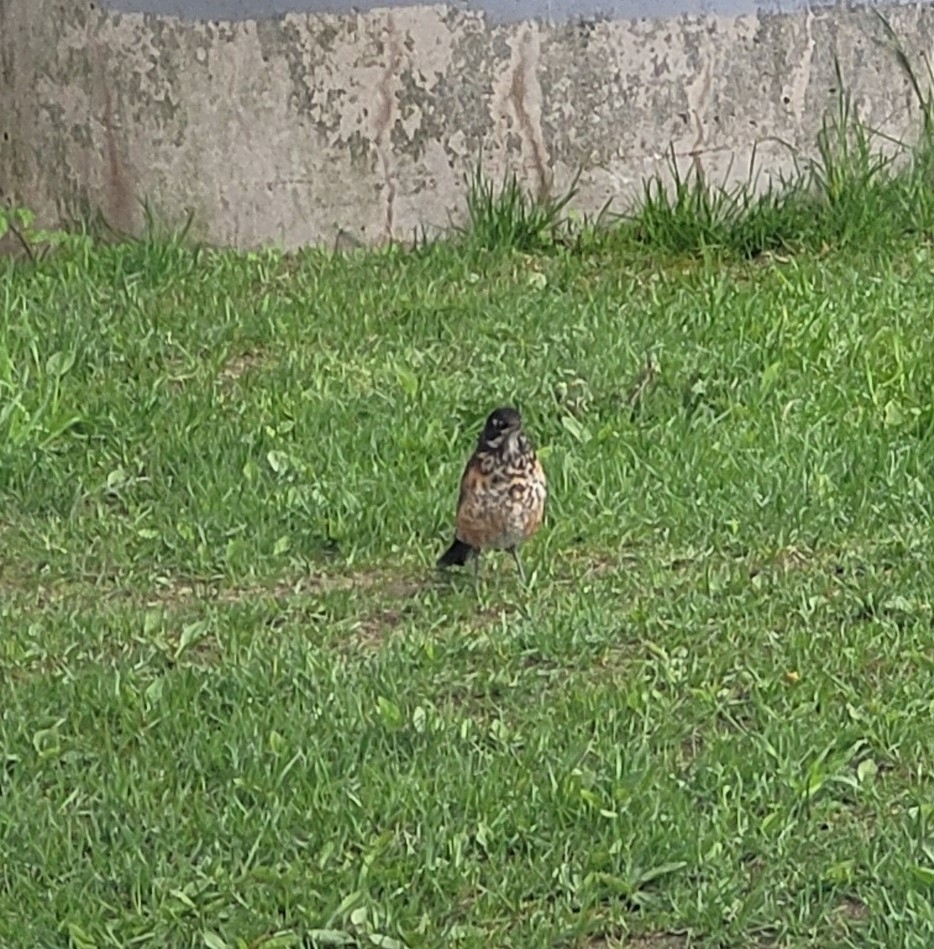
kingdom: Animalia
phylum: Chordata
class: Aves
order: Passeriformes
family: Turdidae
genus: Turdus
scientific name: Turdus migratorius
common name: American robin
